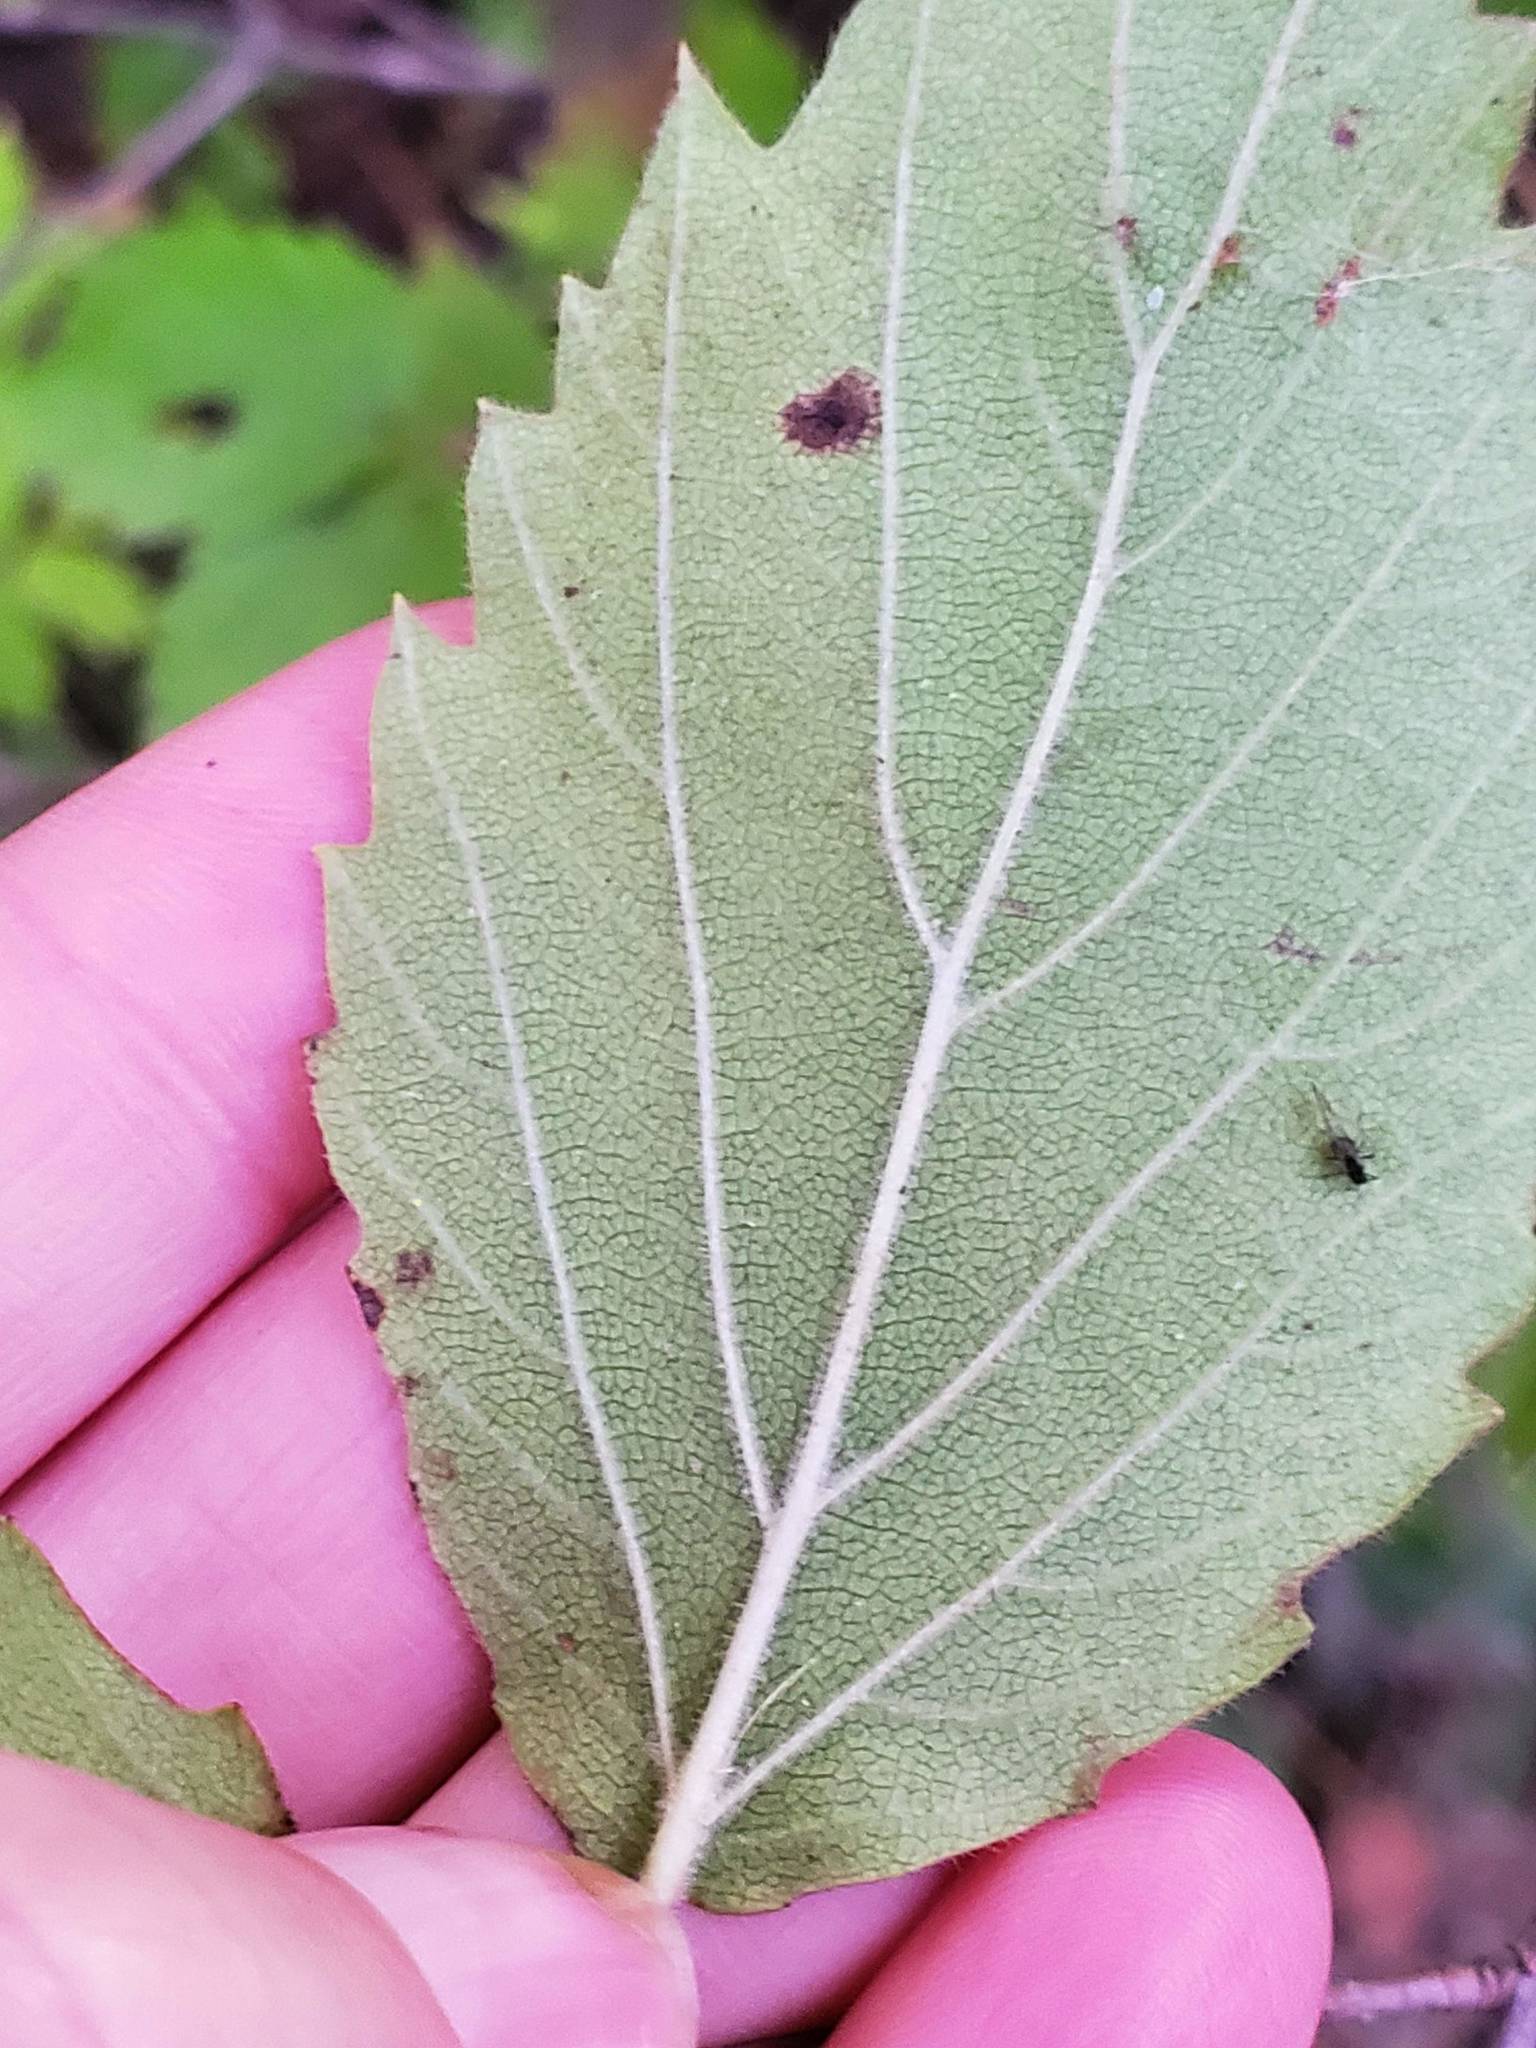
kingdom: Plantae
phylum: Tracheophyta
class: Magnoliopsida
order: Dipsacales
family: Viburnaceae
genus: Viburnum
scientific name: Viburnum rafinesqueanum
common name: Downy arrow-wood
